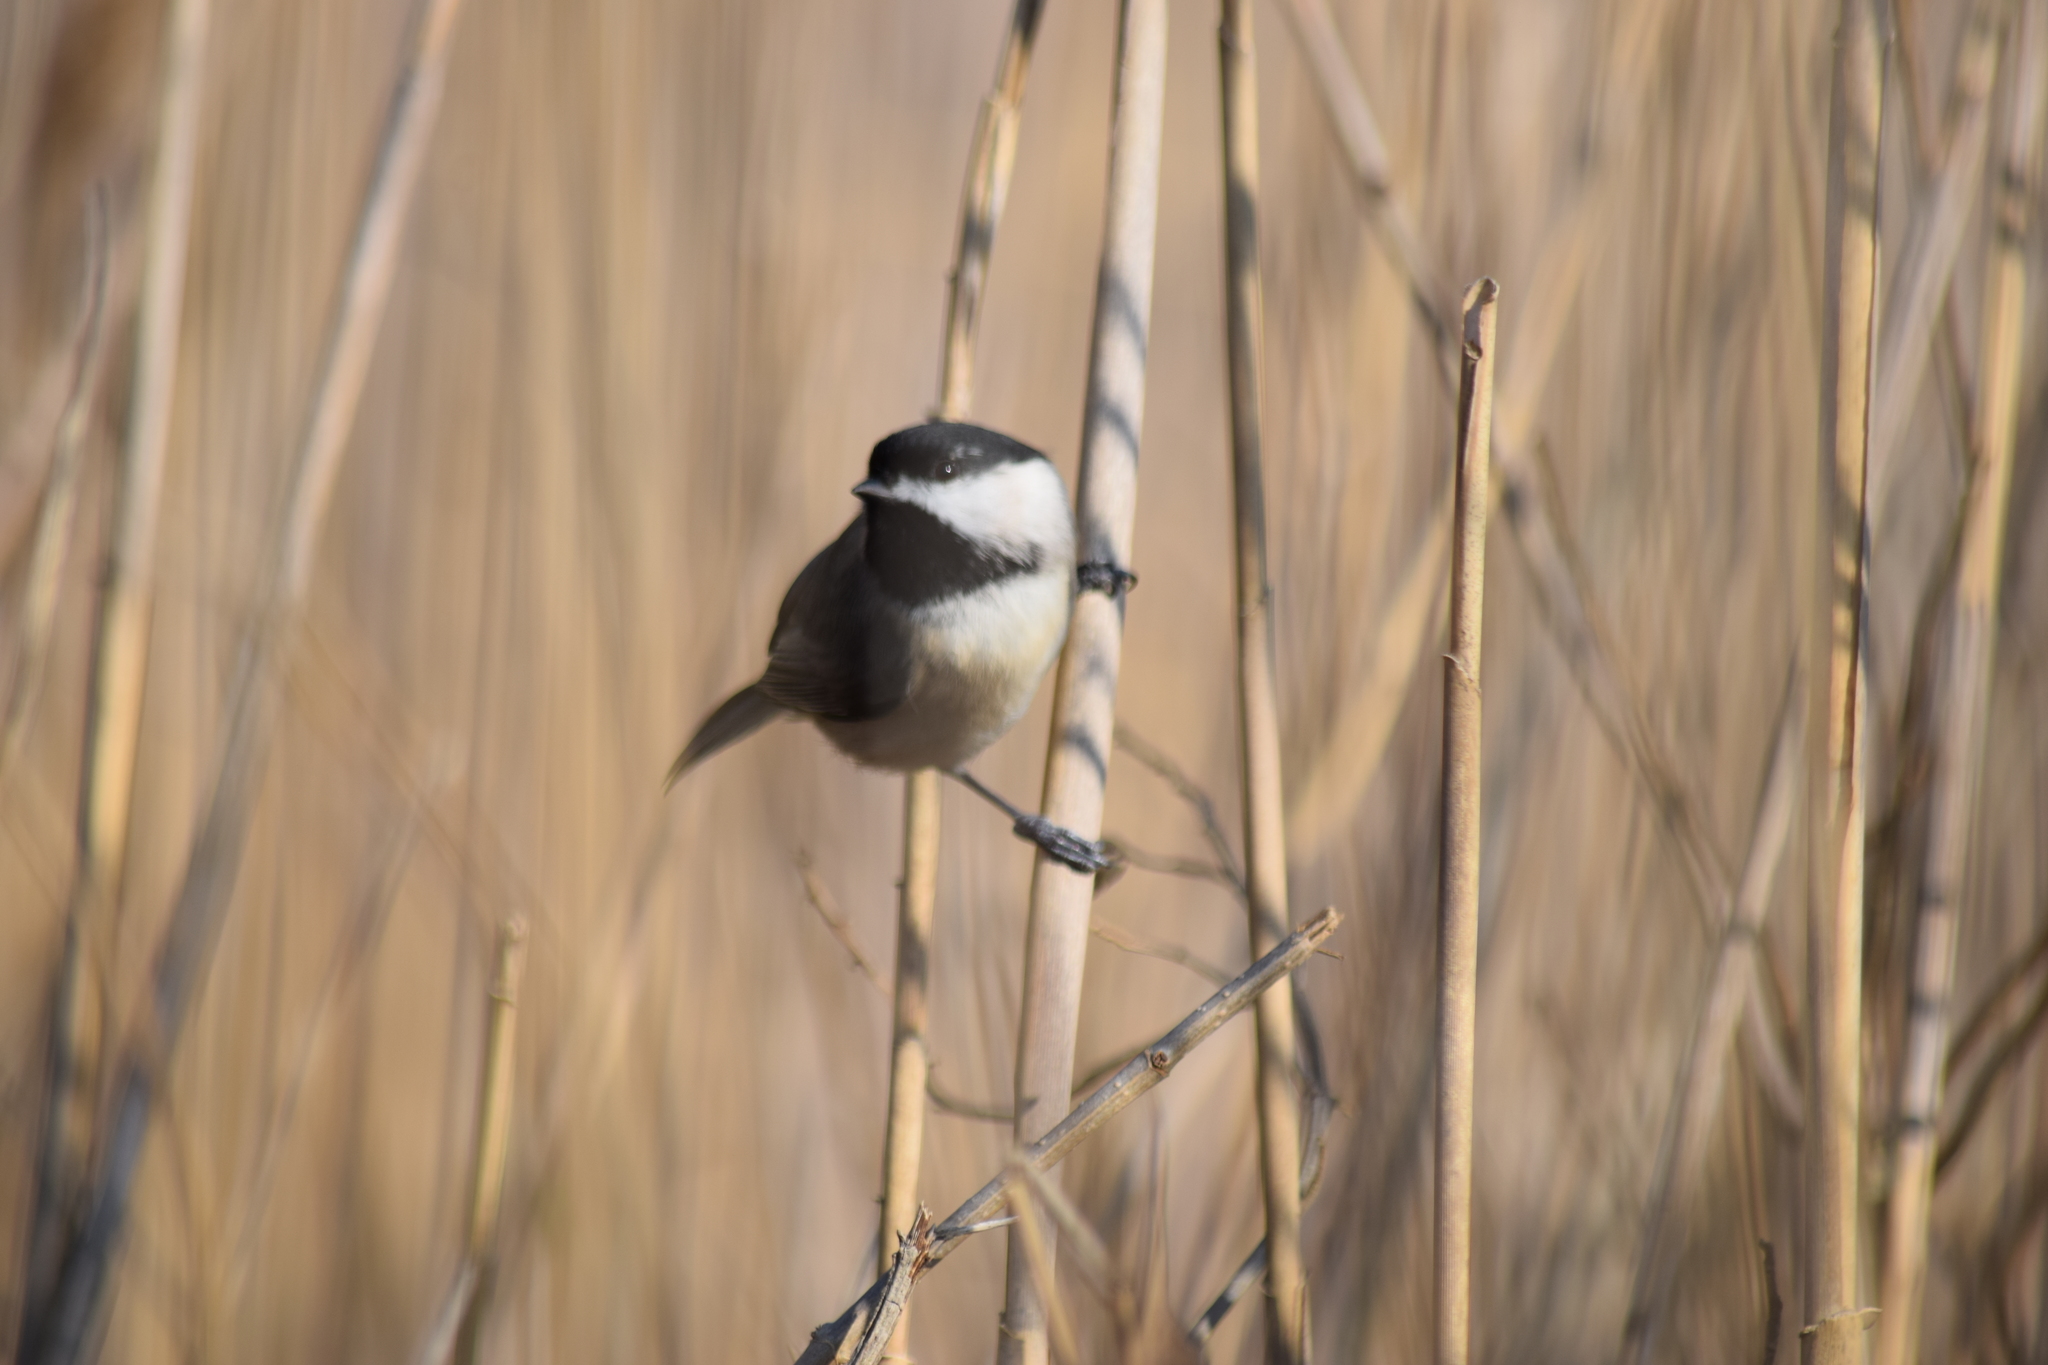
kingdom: Animalia
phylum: Chordata
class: Aves
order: Passeriformes
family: Paridae
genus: Poecile
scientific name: Poecile carolinensis
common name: Carolina chickadee
